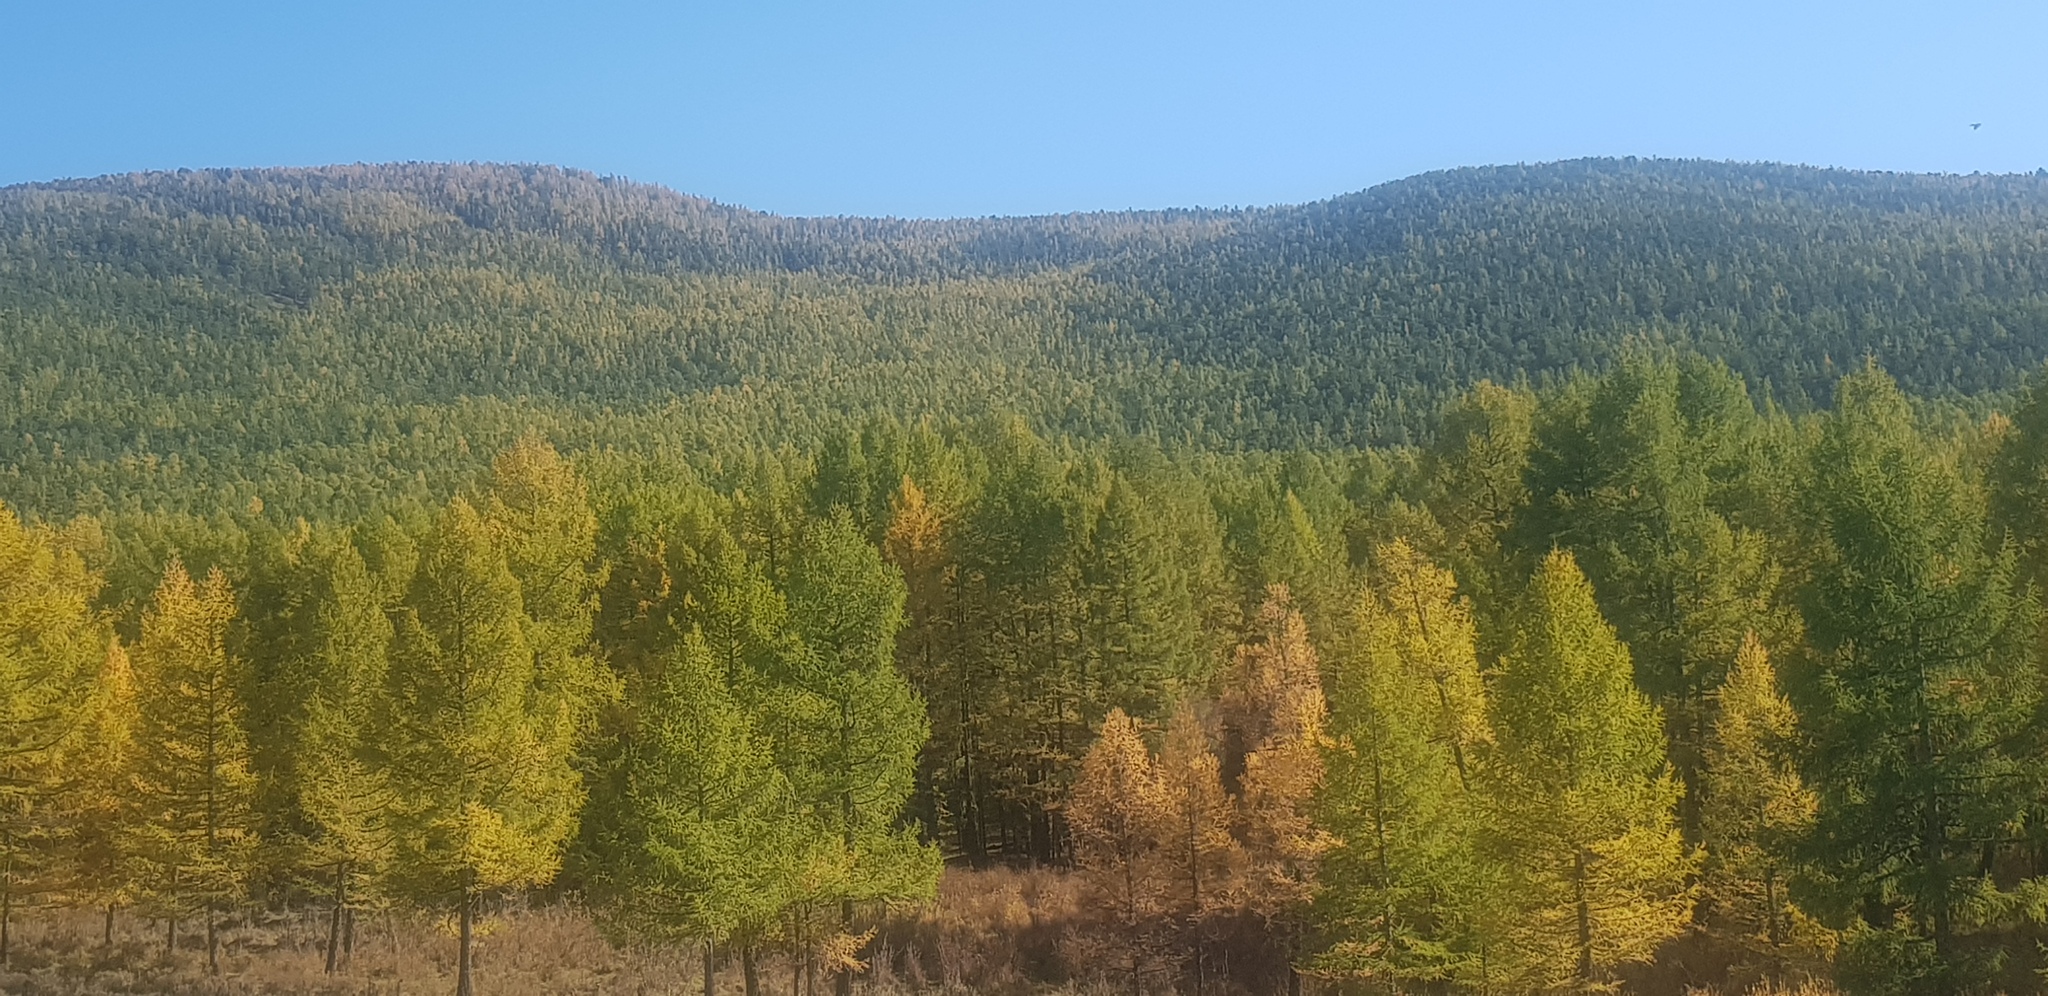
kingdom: Plantae
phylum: Tracheophyta
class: Pinopsida
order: Pinales
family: Pinaceae
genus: Larix
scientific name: Larix sibirica
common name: Siberian larch
